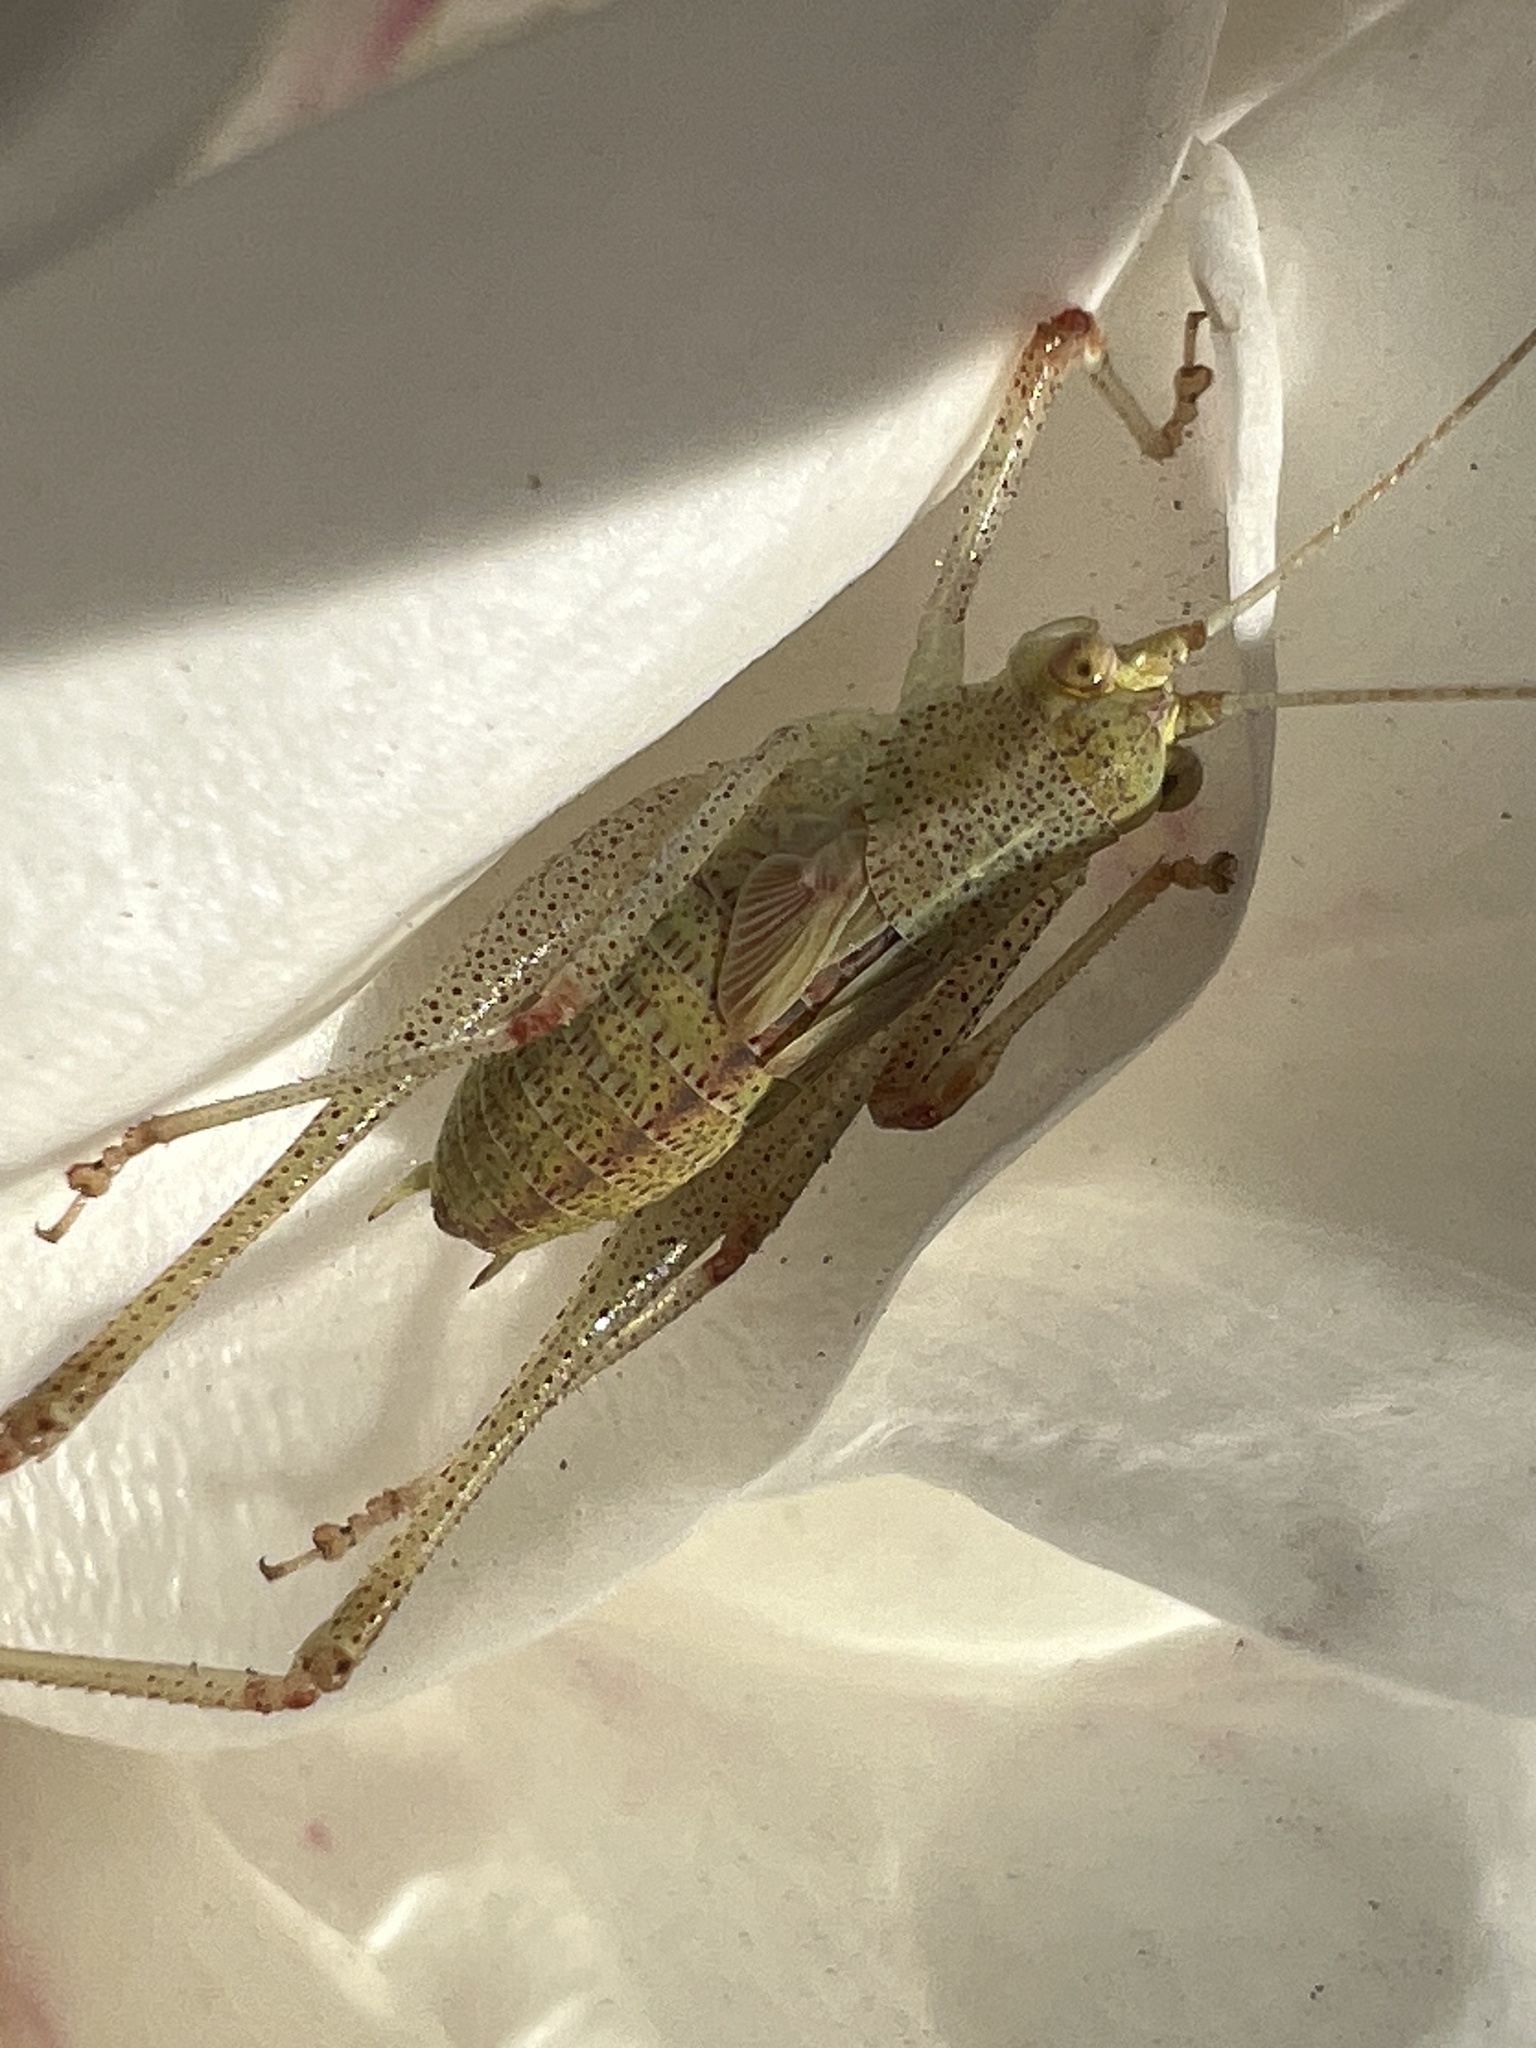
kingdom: Animalia
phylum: Arthropoda
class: Insecta
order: Orthoptera
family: Tettigoniidae
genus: Phaneroptera
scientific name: Phaneroptera nana
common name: Southern sickle bush-cricket
